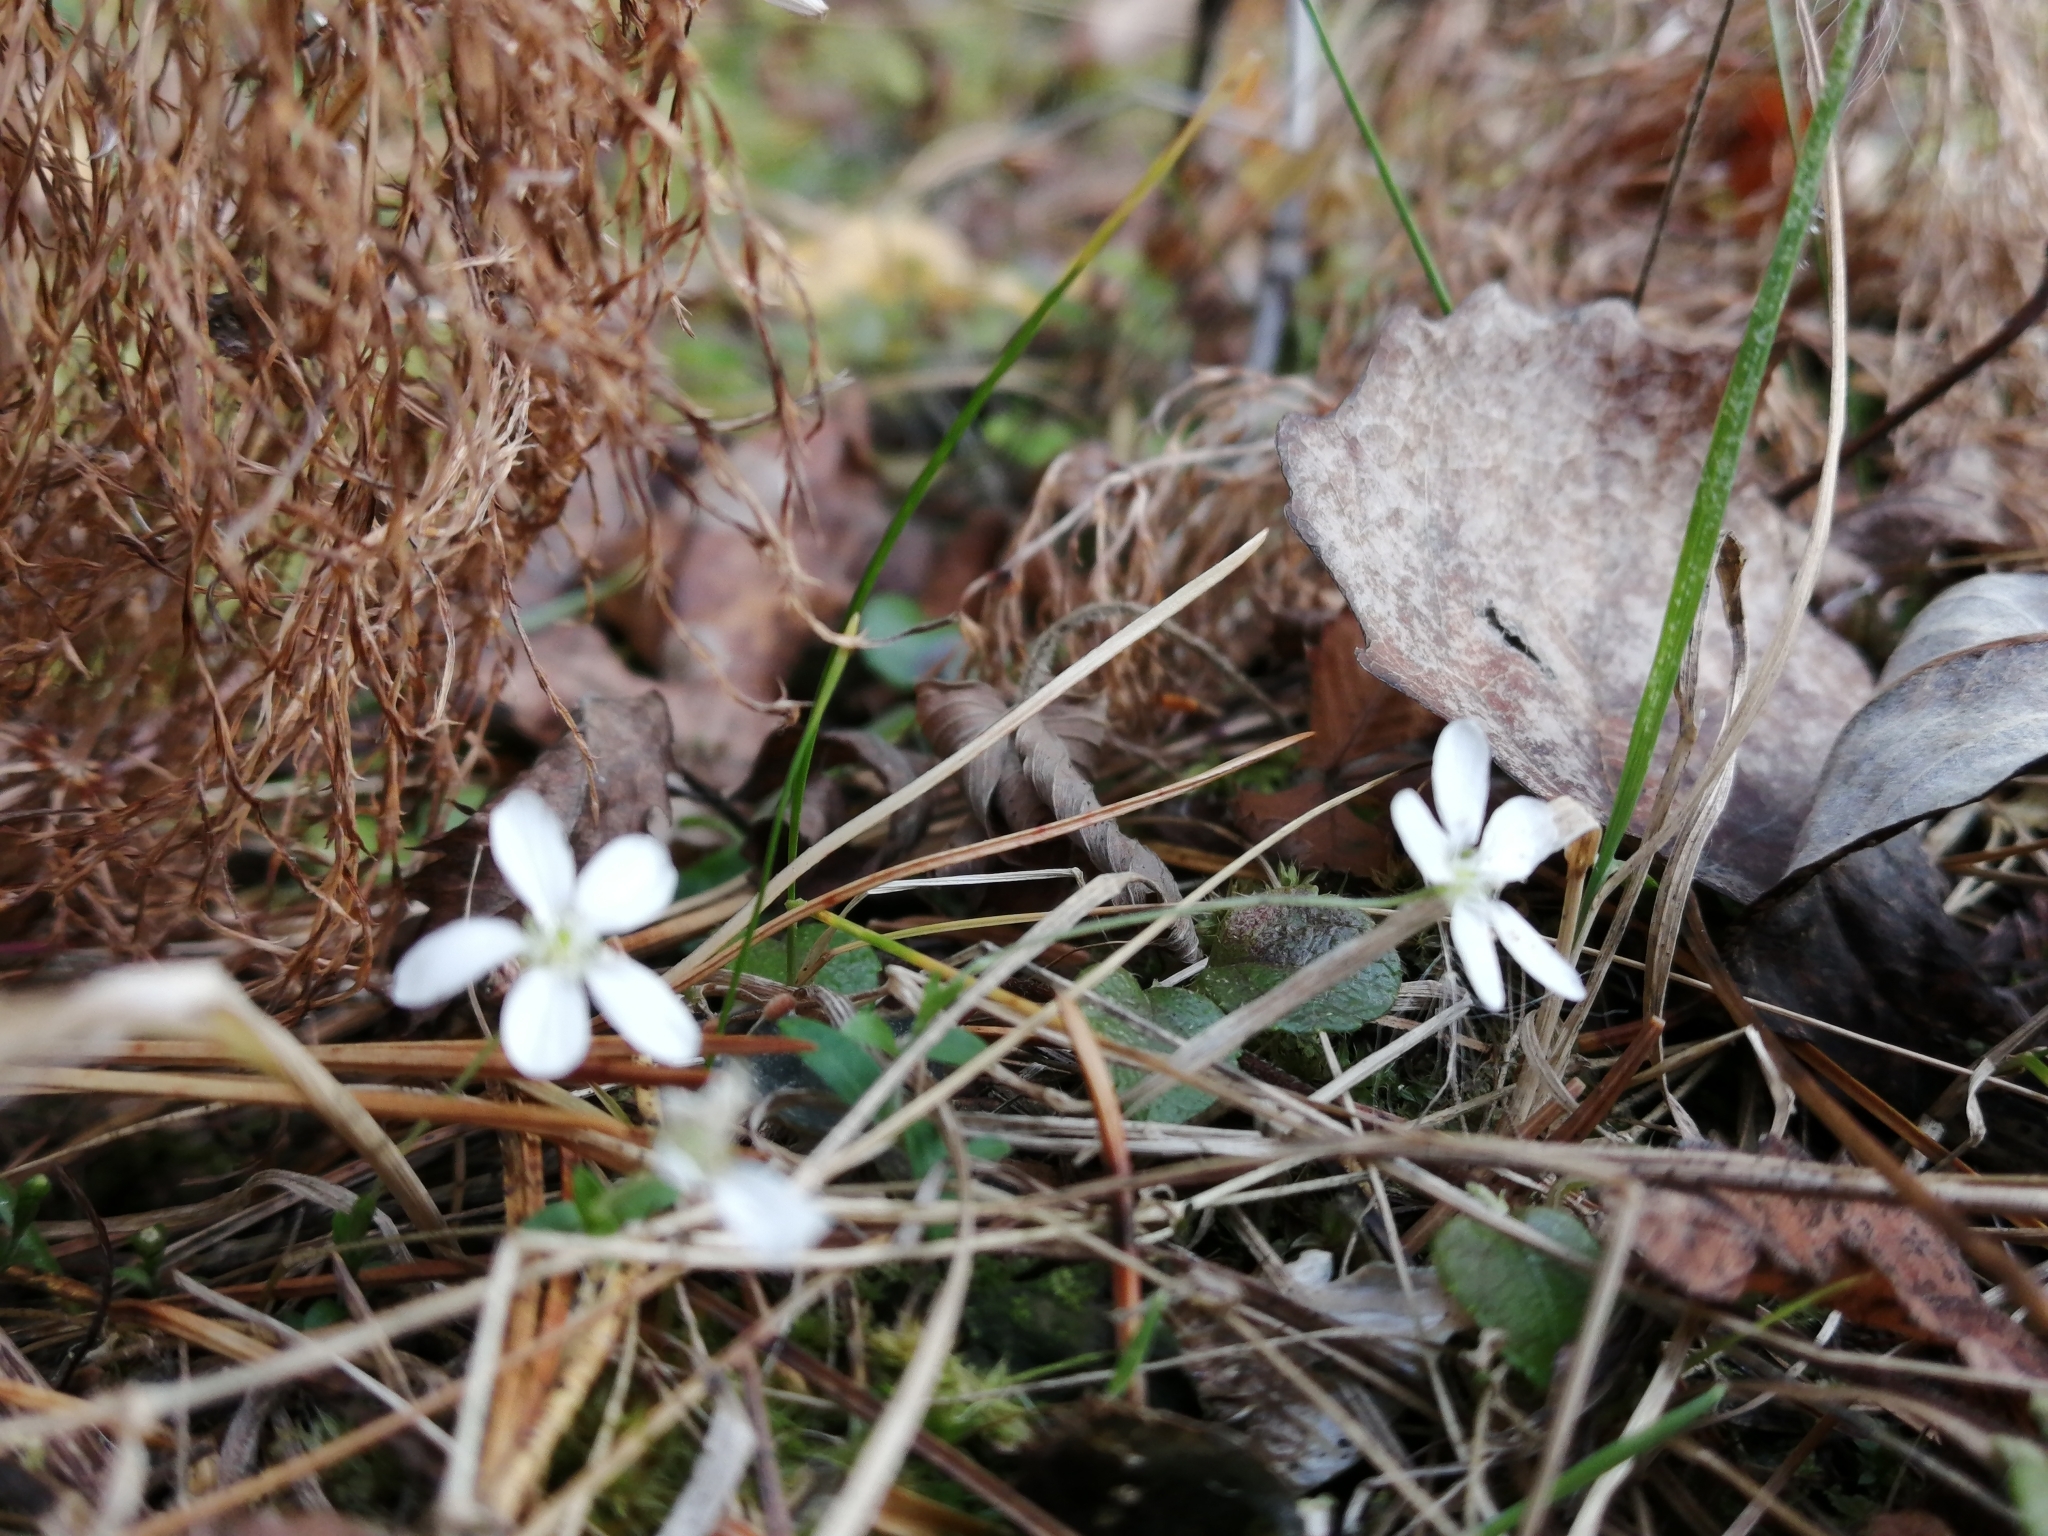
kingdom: Plantae
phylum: Tracheophyta
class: Magnoliopsida
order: Caryophyllales
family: Caryophyllaceae
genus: Moehringia
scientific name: Moehringia lateriflora
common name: Blunt-leaved sandwort
